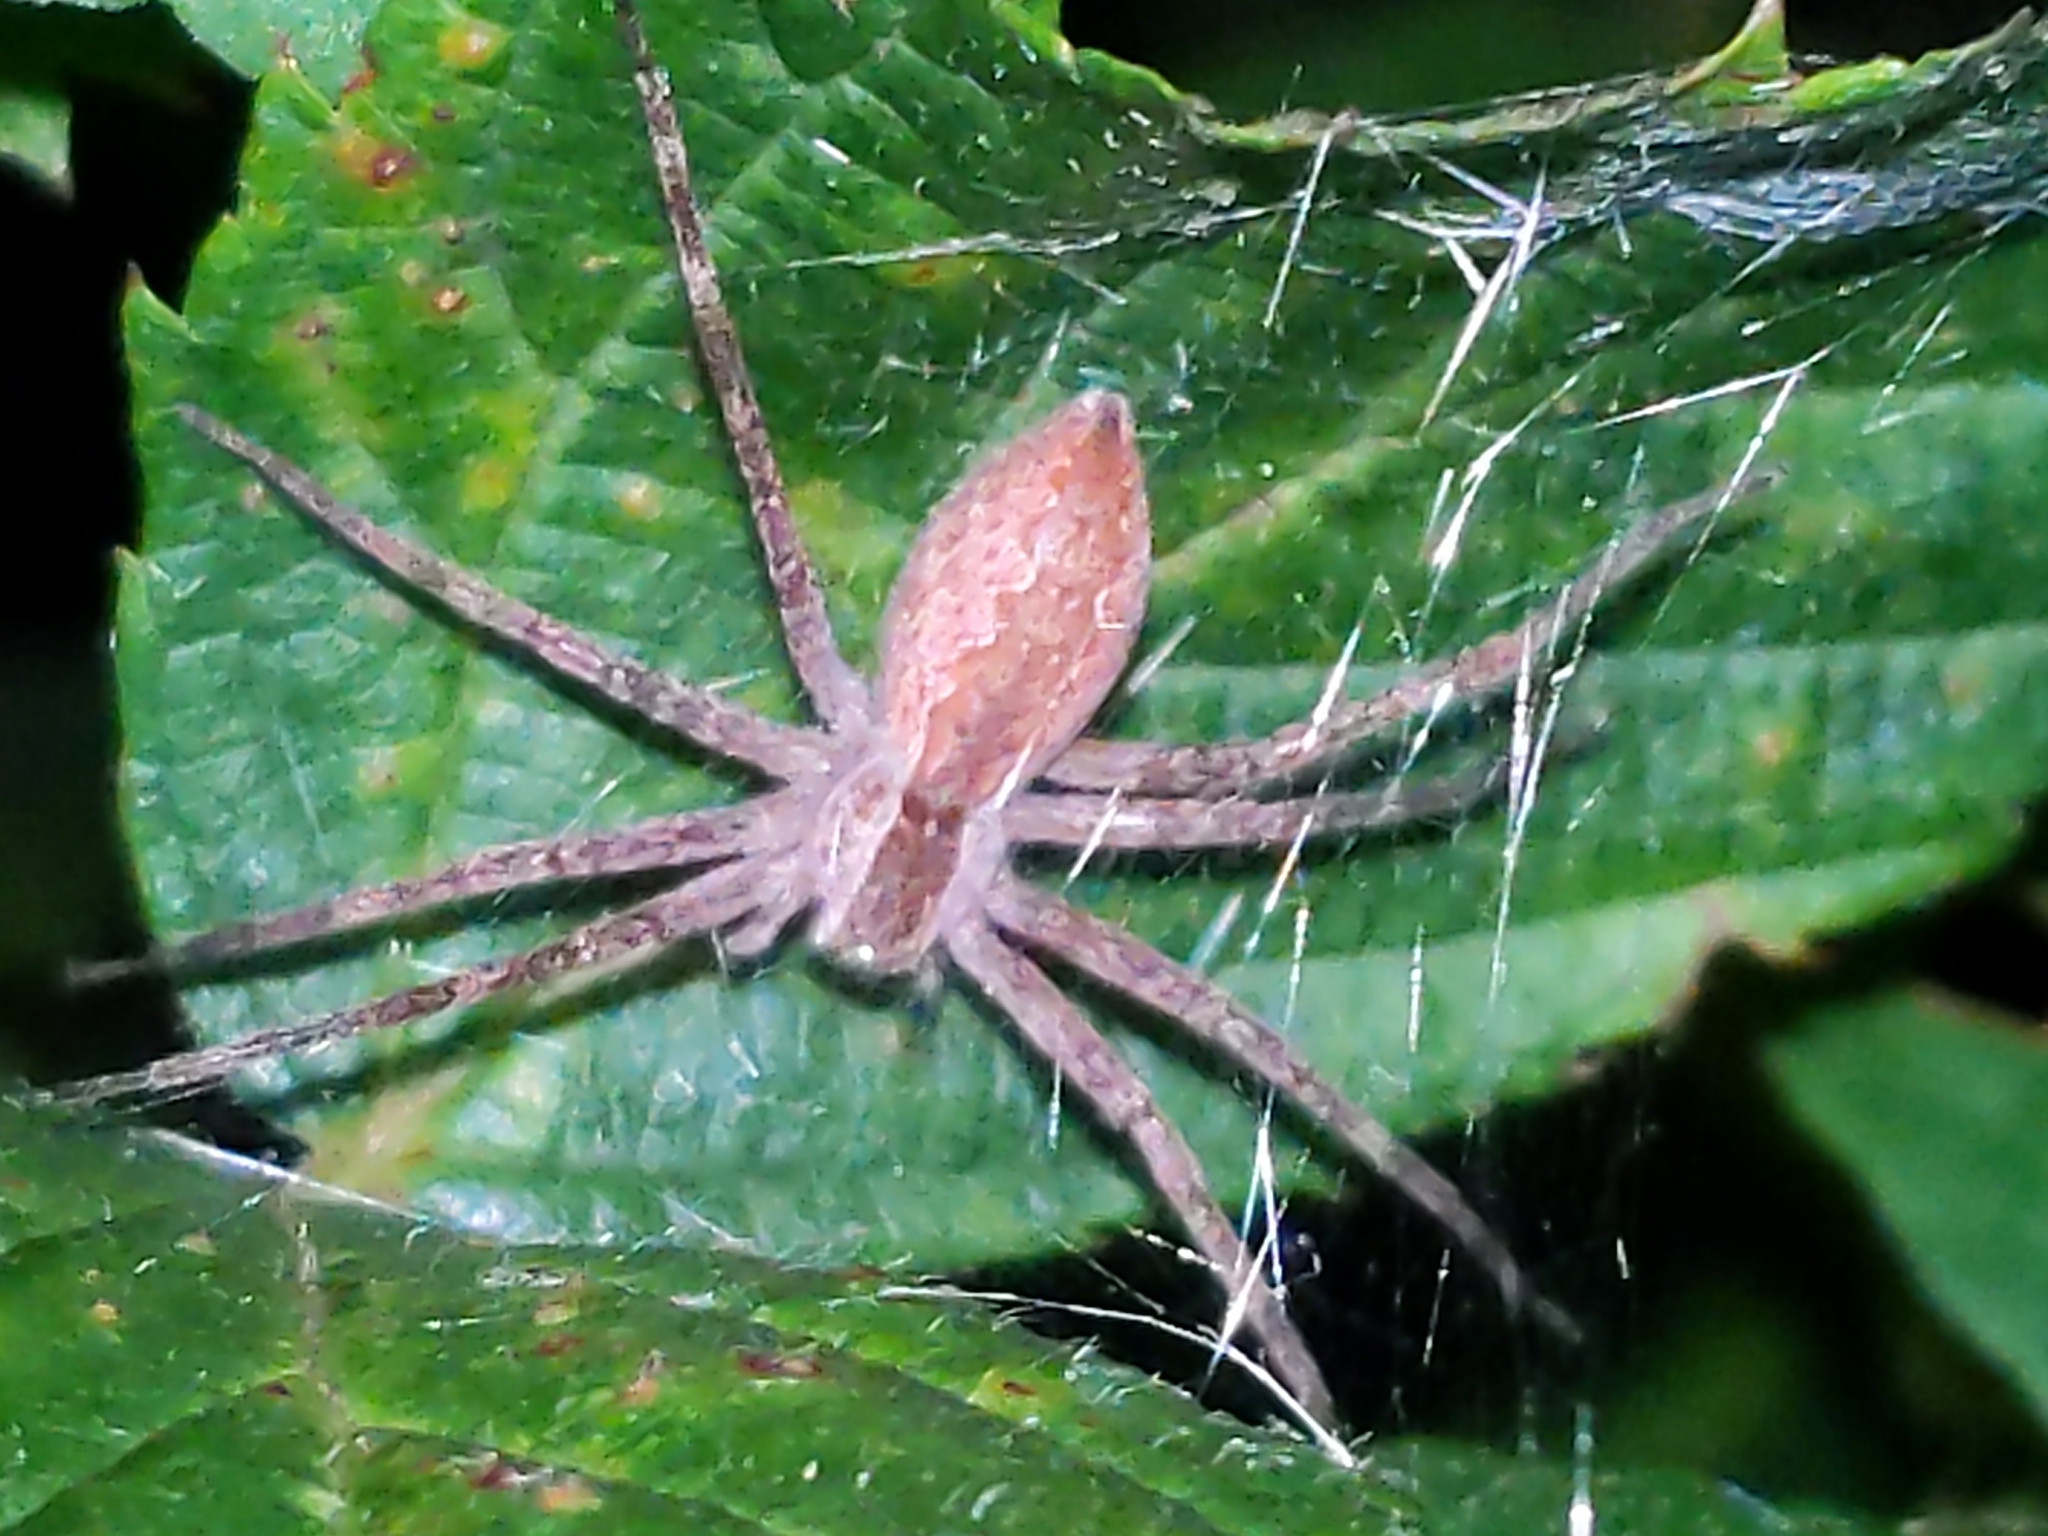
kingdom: Animalia
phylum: Arthropoda
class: Arachnida
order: Araneae
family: Pisauridae
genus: Pisaurina
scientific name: Pisaurina mira
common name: American nursery web spider
